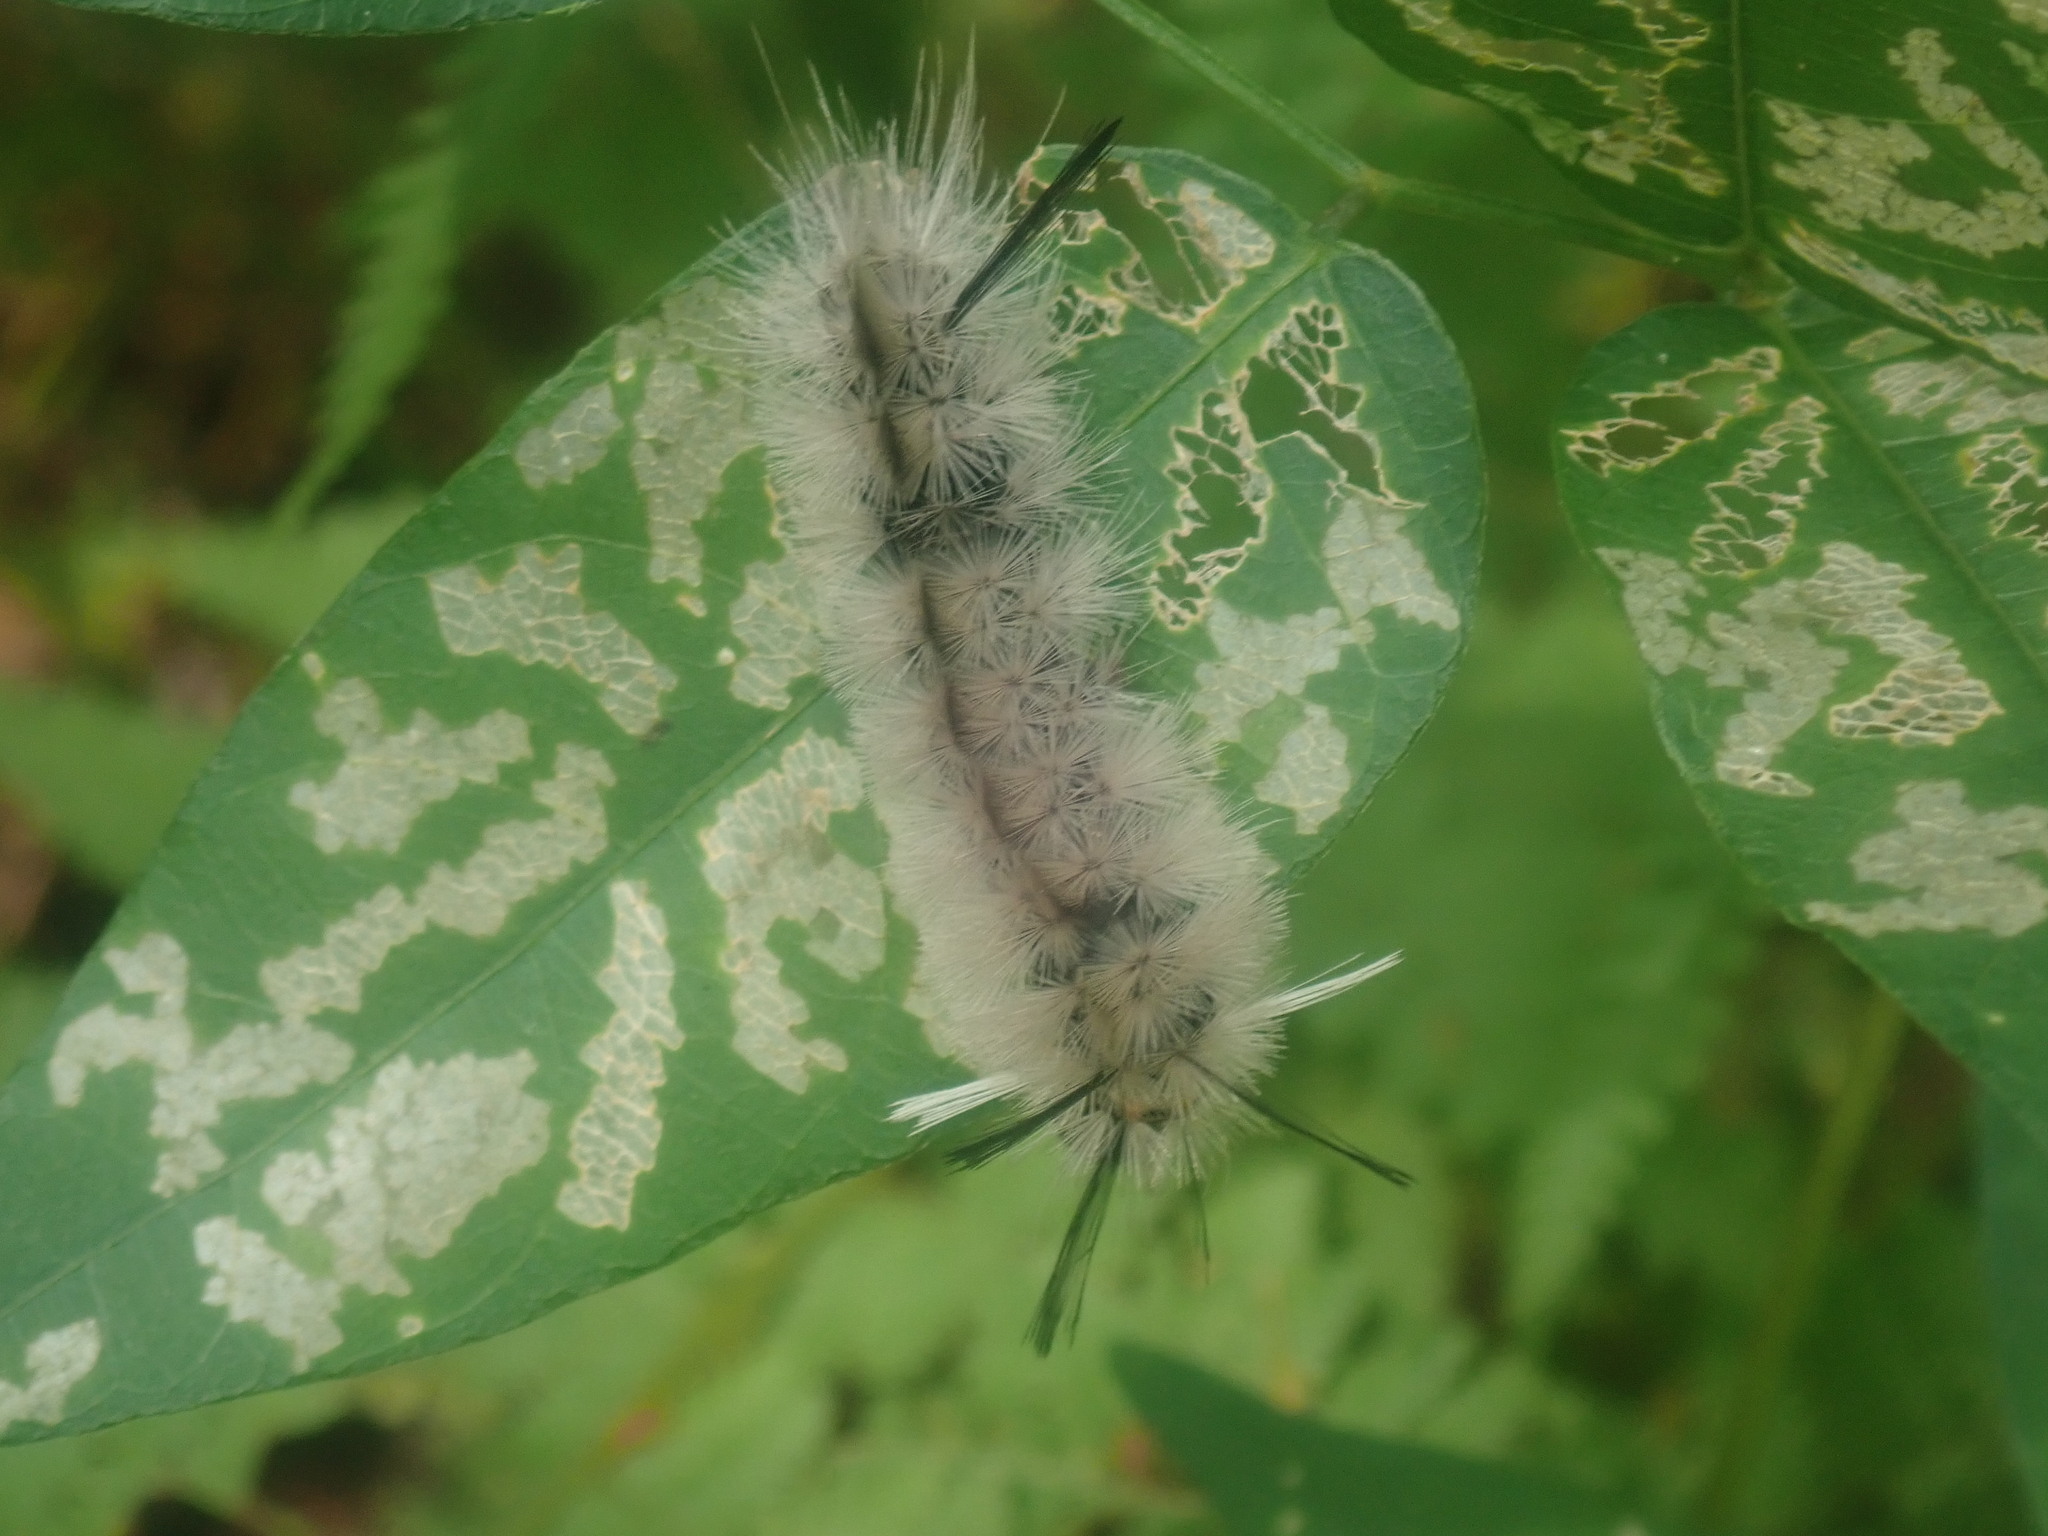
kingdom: Animalia
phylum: Arthropoda
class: Insecta
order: Lepidoptera
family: Erebidae
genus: Halysidota
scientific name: Halysidota tessellaris
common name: Banded tussock moth
